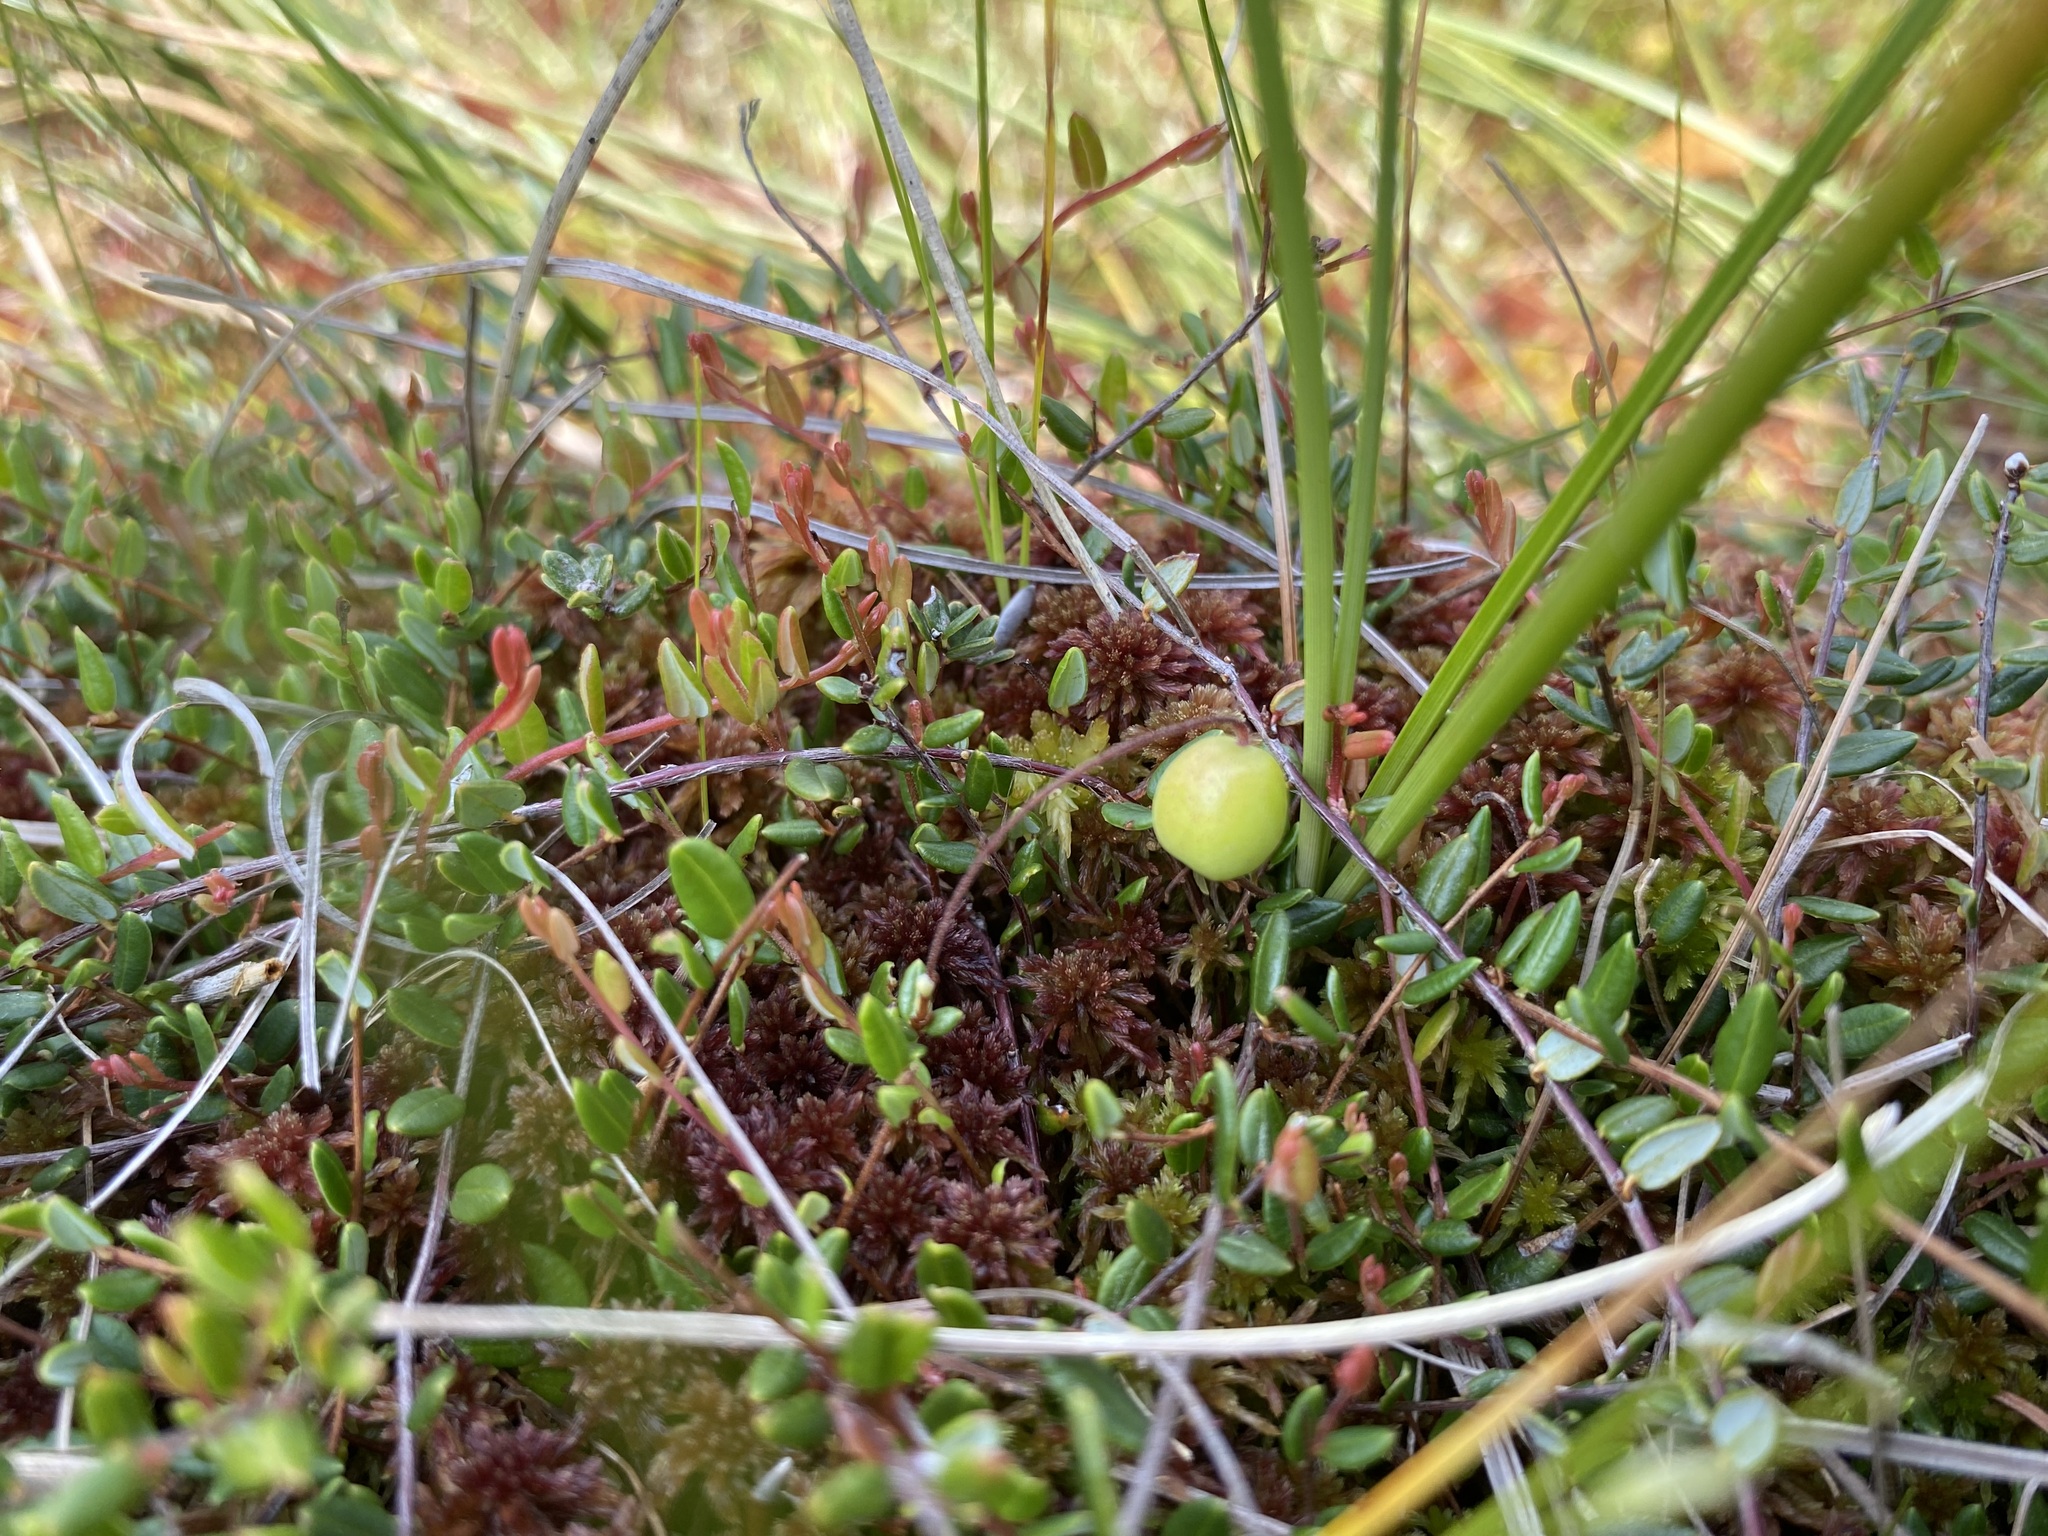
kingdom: Plantae
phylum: Tracheophyta
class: Magnoliopsida
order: Ericales
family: Ericaceae
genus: Vaccinium
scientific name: Vaccinium oxycoccos
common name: Cranberry
